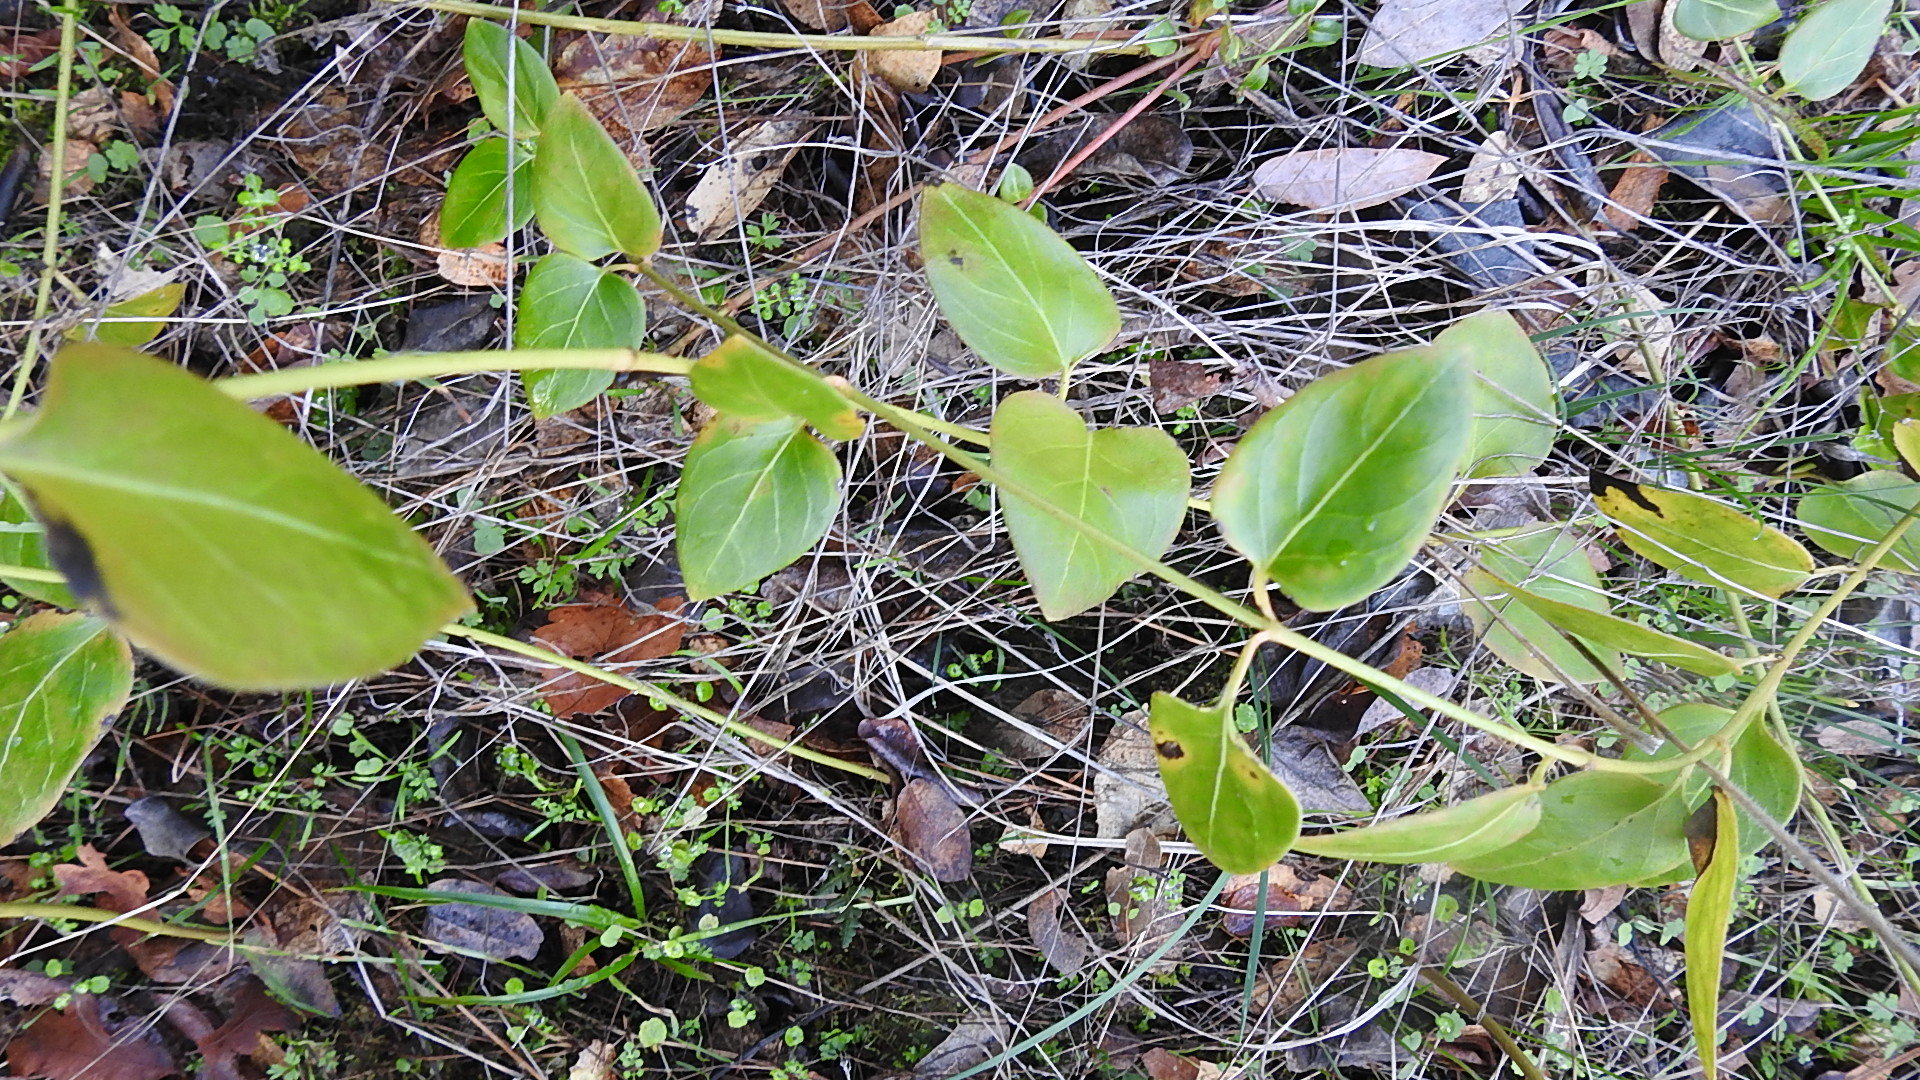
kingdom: Plantae
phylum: Tracheophyta
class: Magnoliopsida
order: Gentianales
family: Apocynaceae
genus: Vinca
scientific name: Vinca major
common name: Greater periwinkle
